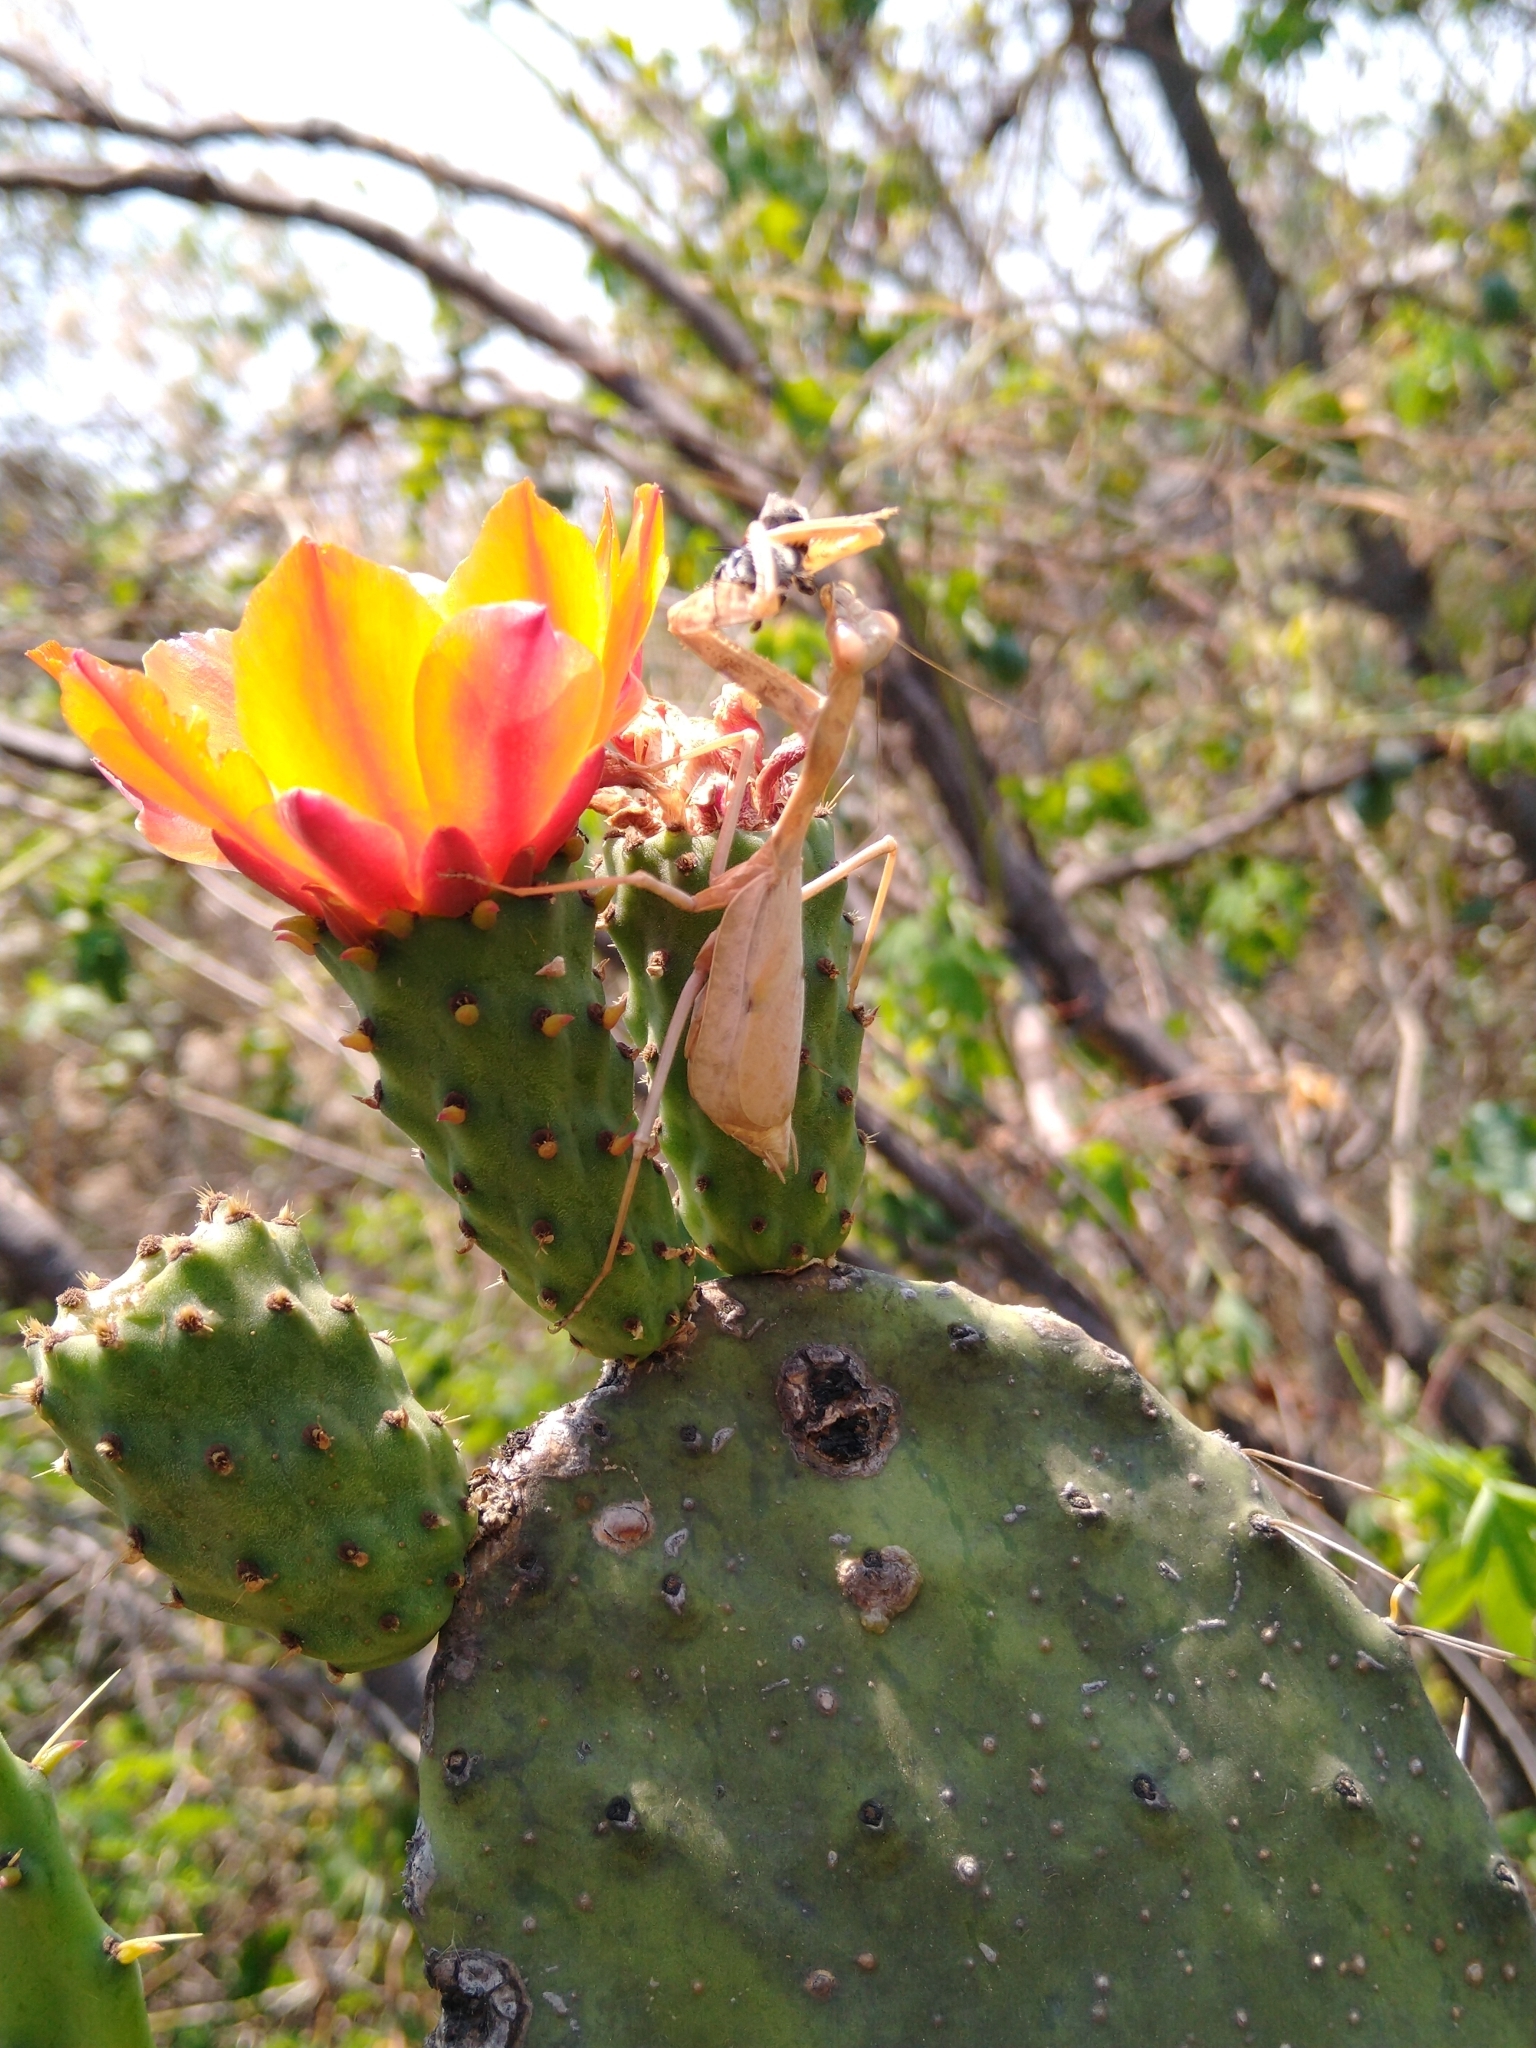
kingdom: Animalia
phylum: Arthropoda
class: Insecta
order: Mantodea
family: Mantidae
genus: Stagmomantis
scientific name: Stagmomantis limbata
